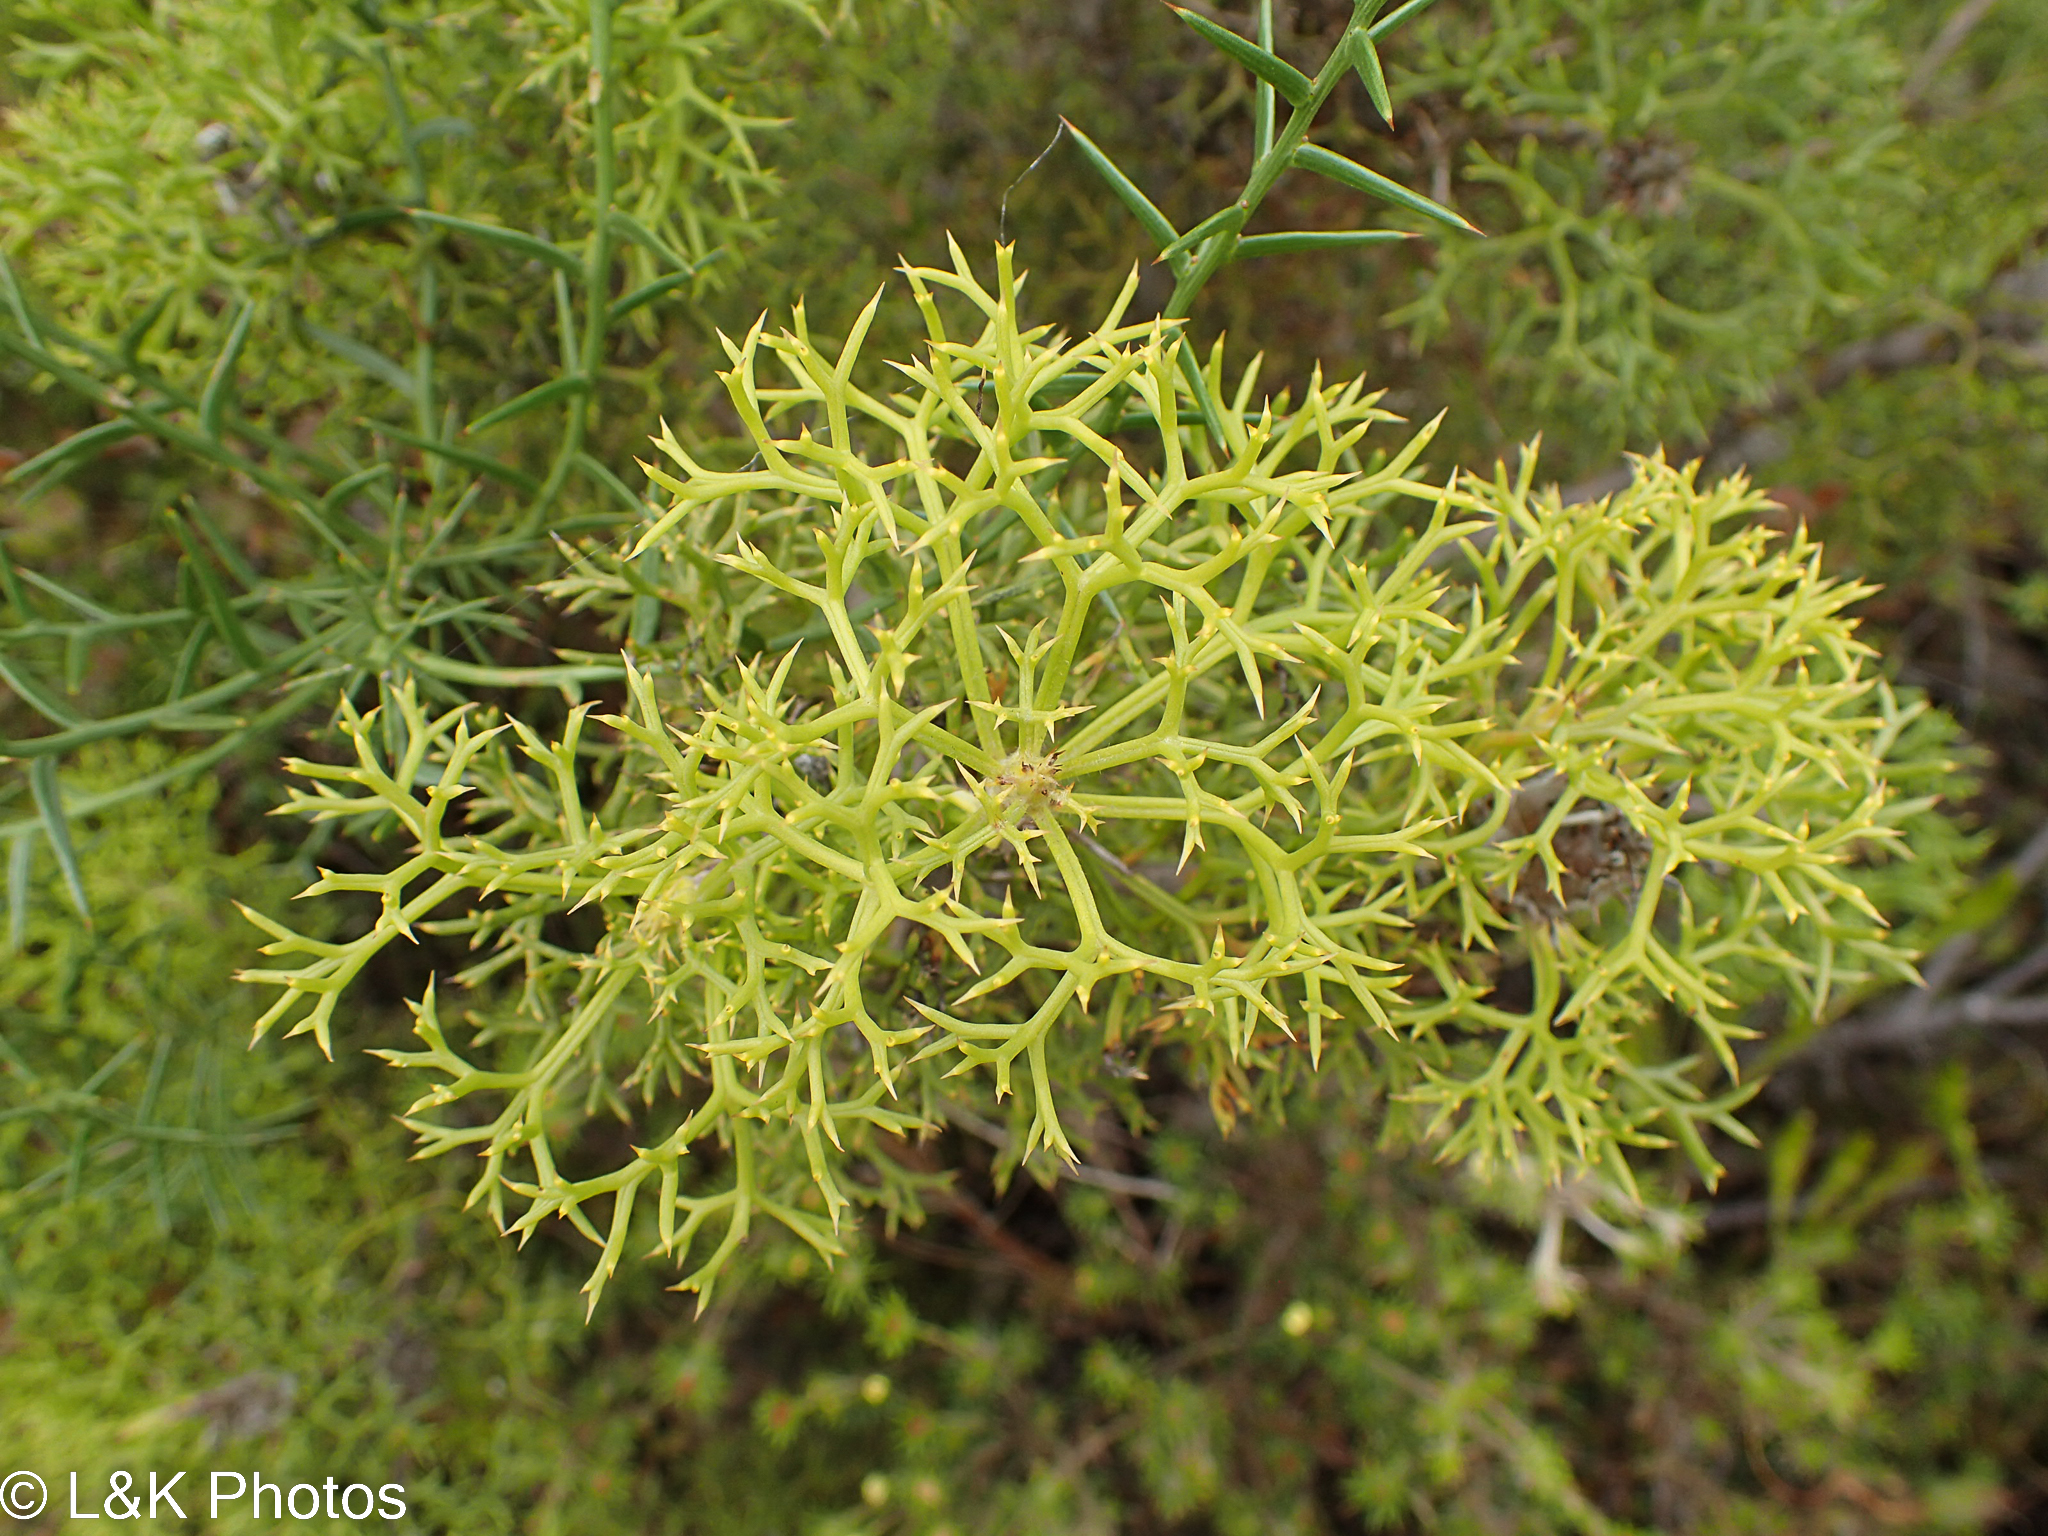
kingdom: Plantae
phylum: Tracheophyta
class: Magnoliopsida
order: Proteales
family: Proteaceae
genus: Isopogon
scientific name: Isopogon ceratophyllus
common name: Horny cone-bush
